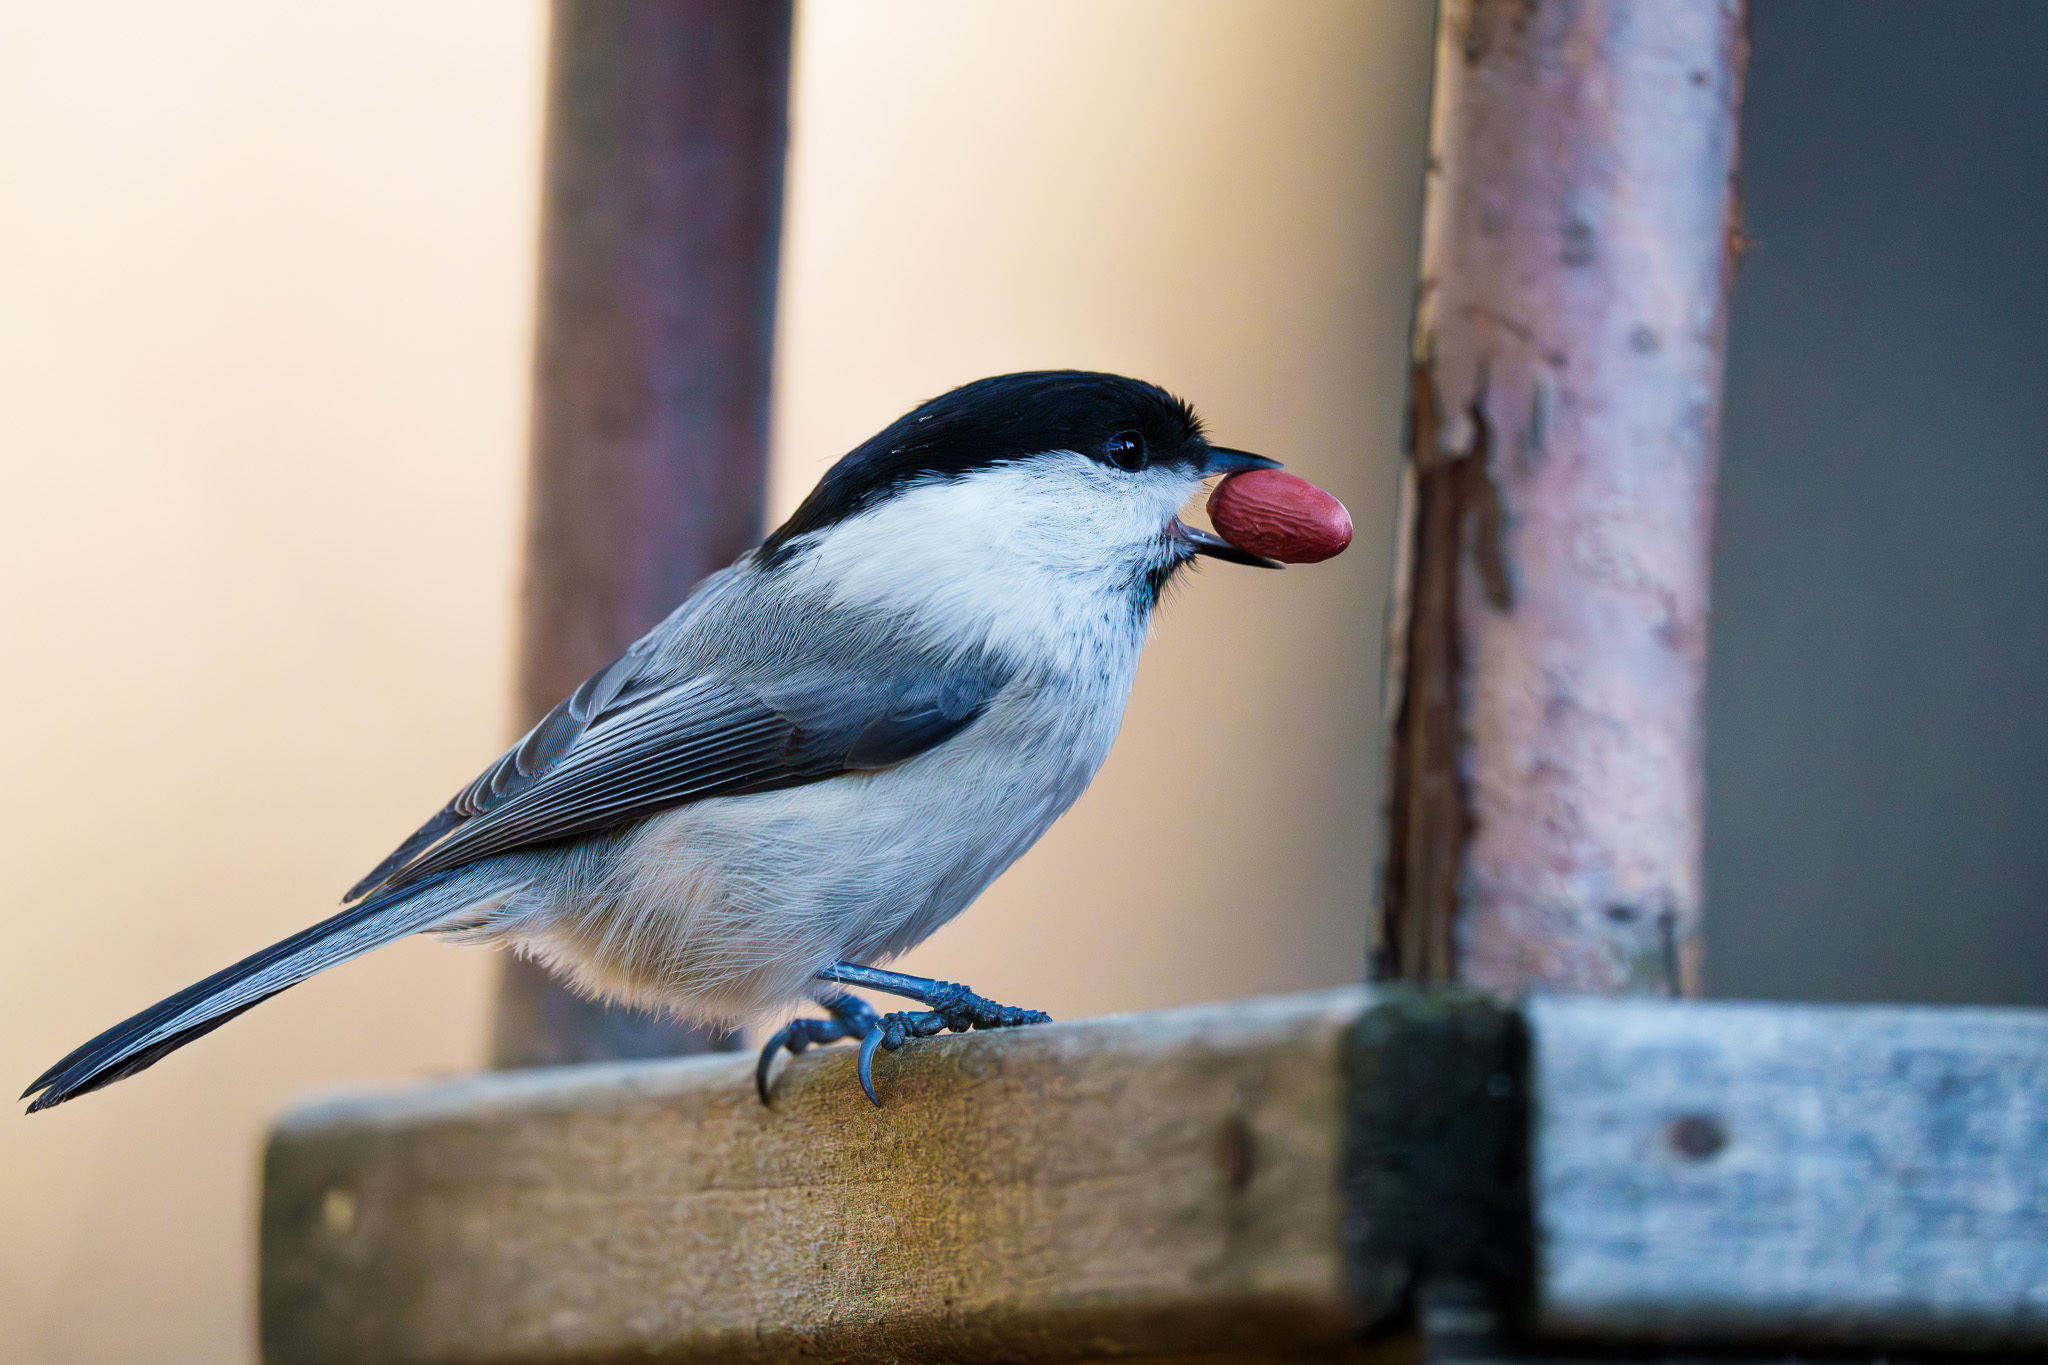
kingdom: Animalia
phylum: Chordata
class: Aves
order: Passeriformes
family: Paridae
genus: Poecile
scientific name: Poecile montanus
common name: Willow tit
